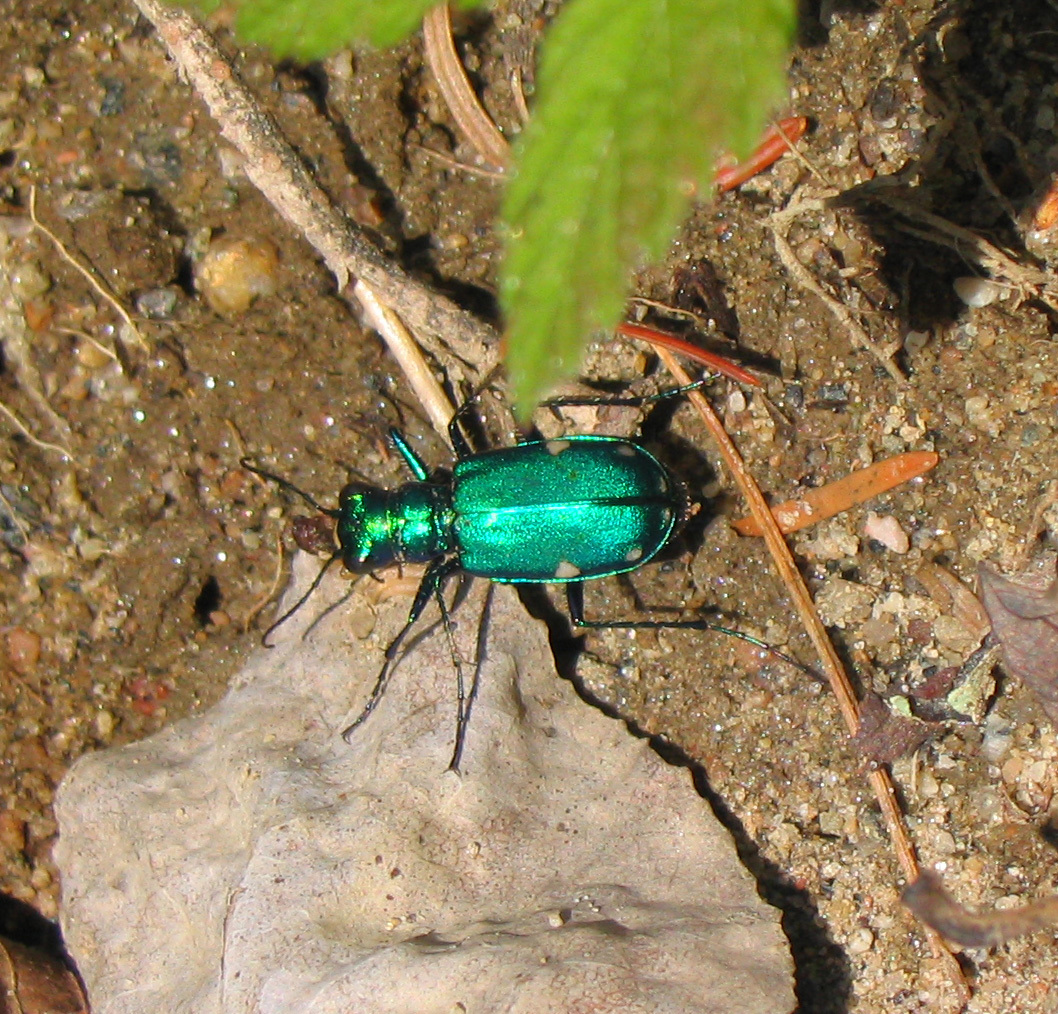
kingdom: Animalia
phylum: Arthropoda
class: Insecta
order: Coleoptera
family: Carabidae
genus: Cicindela
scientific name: Cicindela sexguttata
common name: Six-spotted tiger beetle
